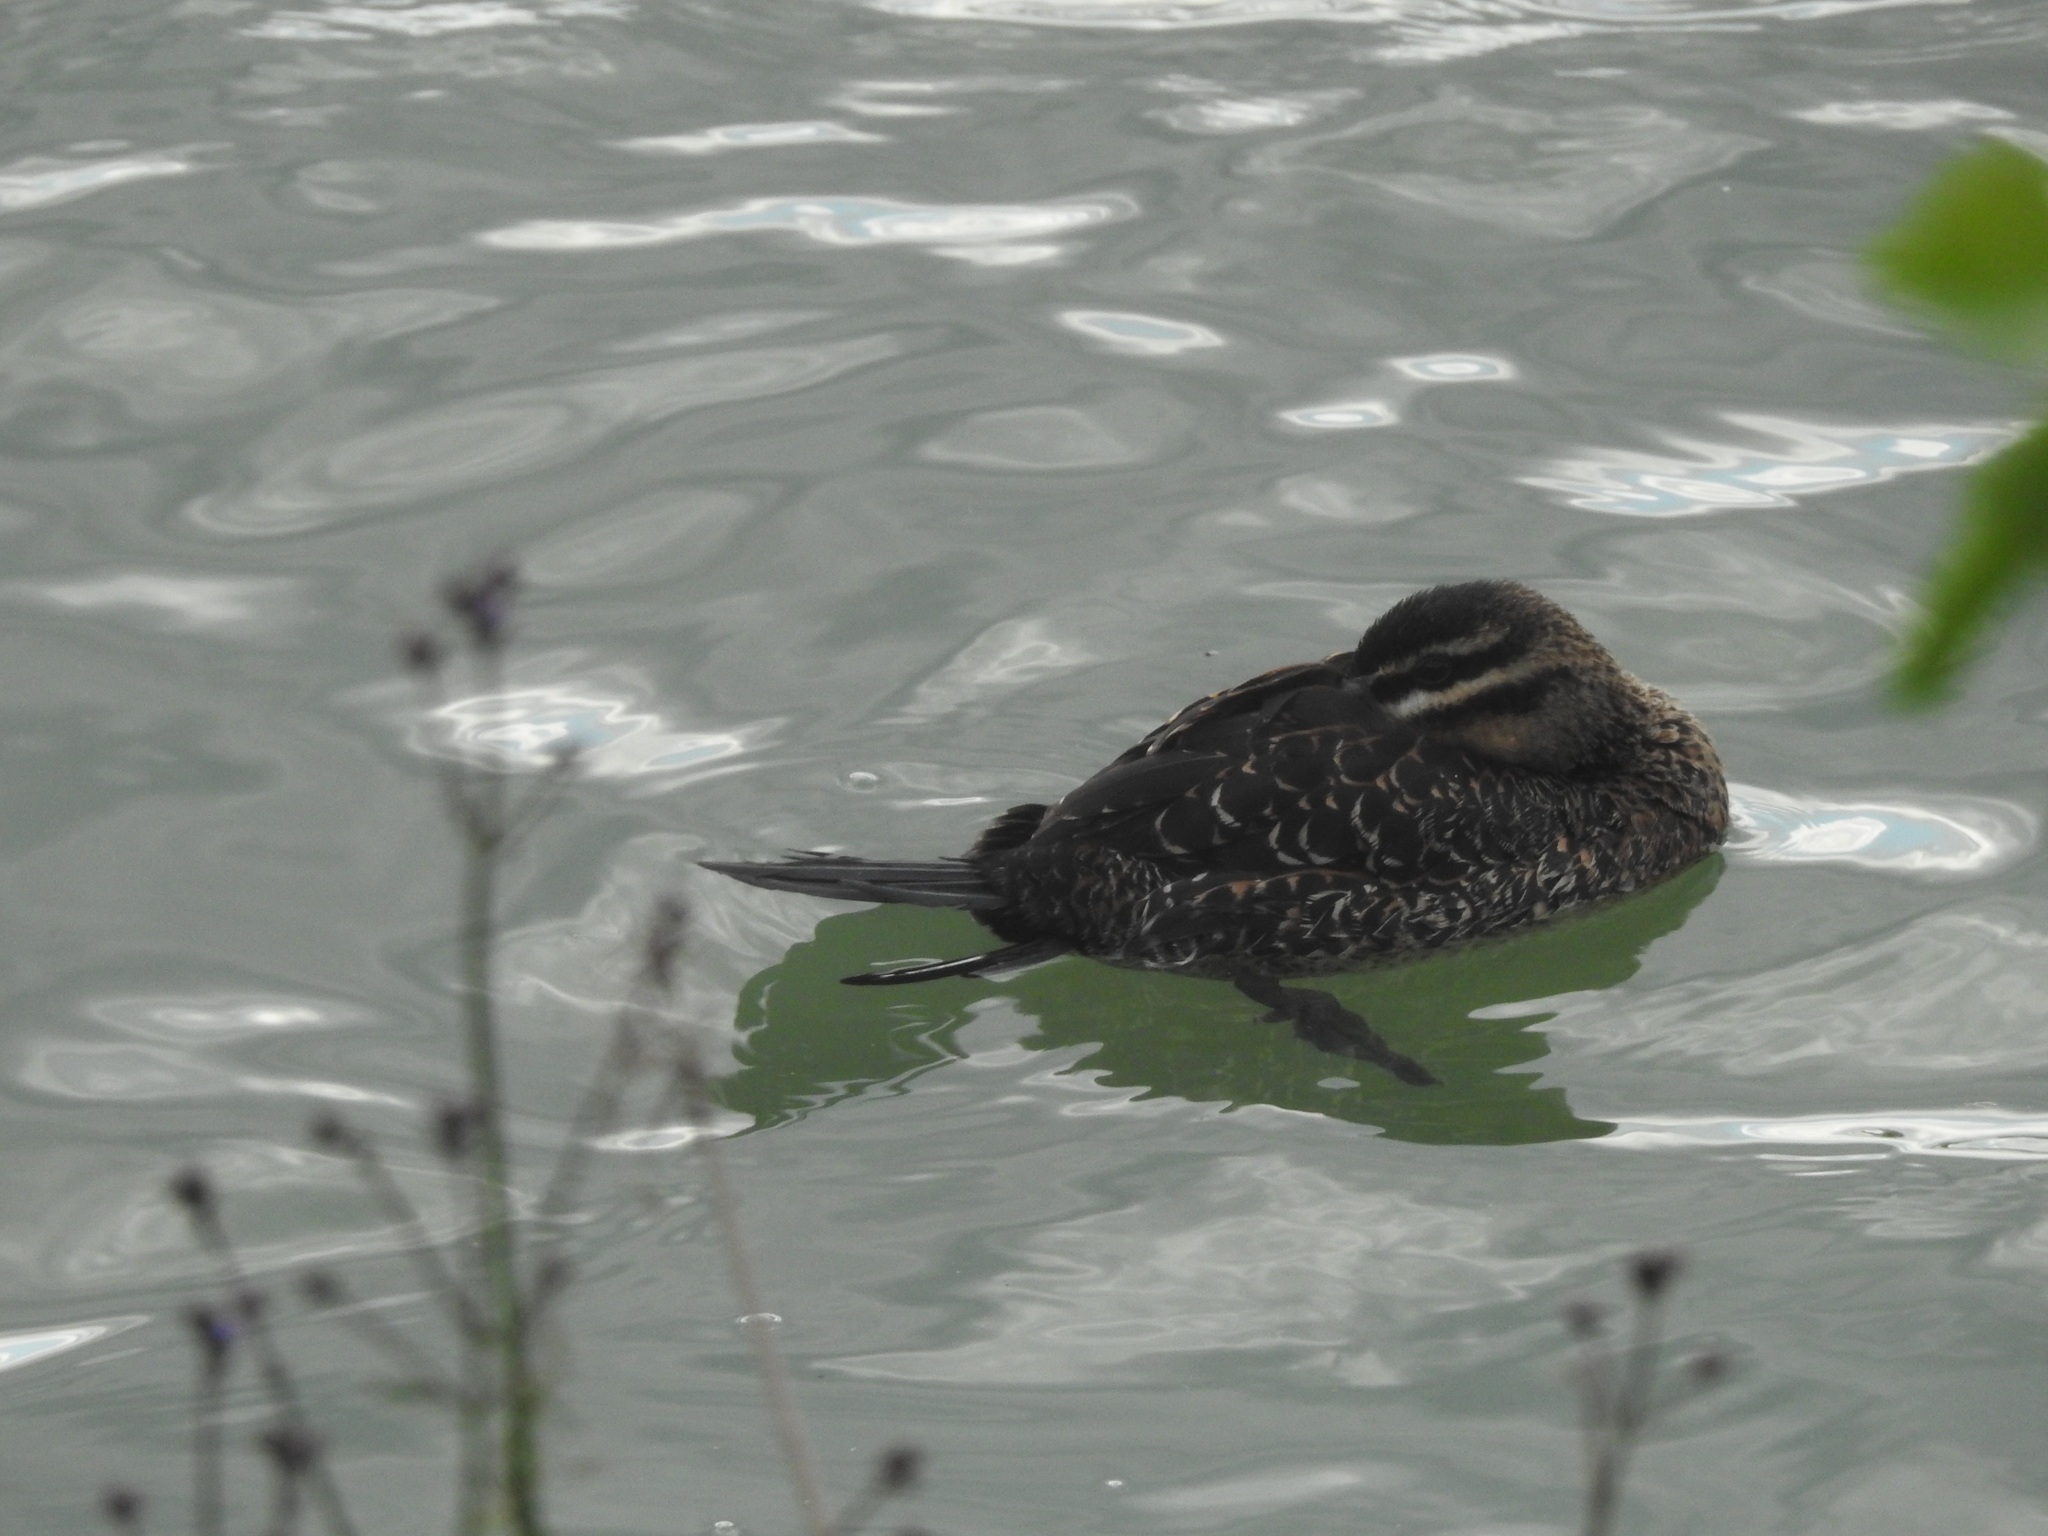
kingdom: Animalia
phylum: Chordata
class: Aves
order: Anseriformes
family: Anatidae
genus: Nomonyx
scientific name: Nomonyx dominicus
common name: Masked duck
